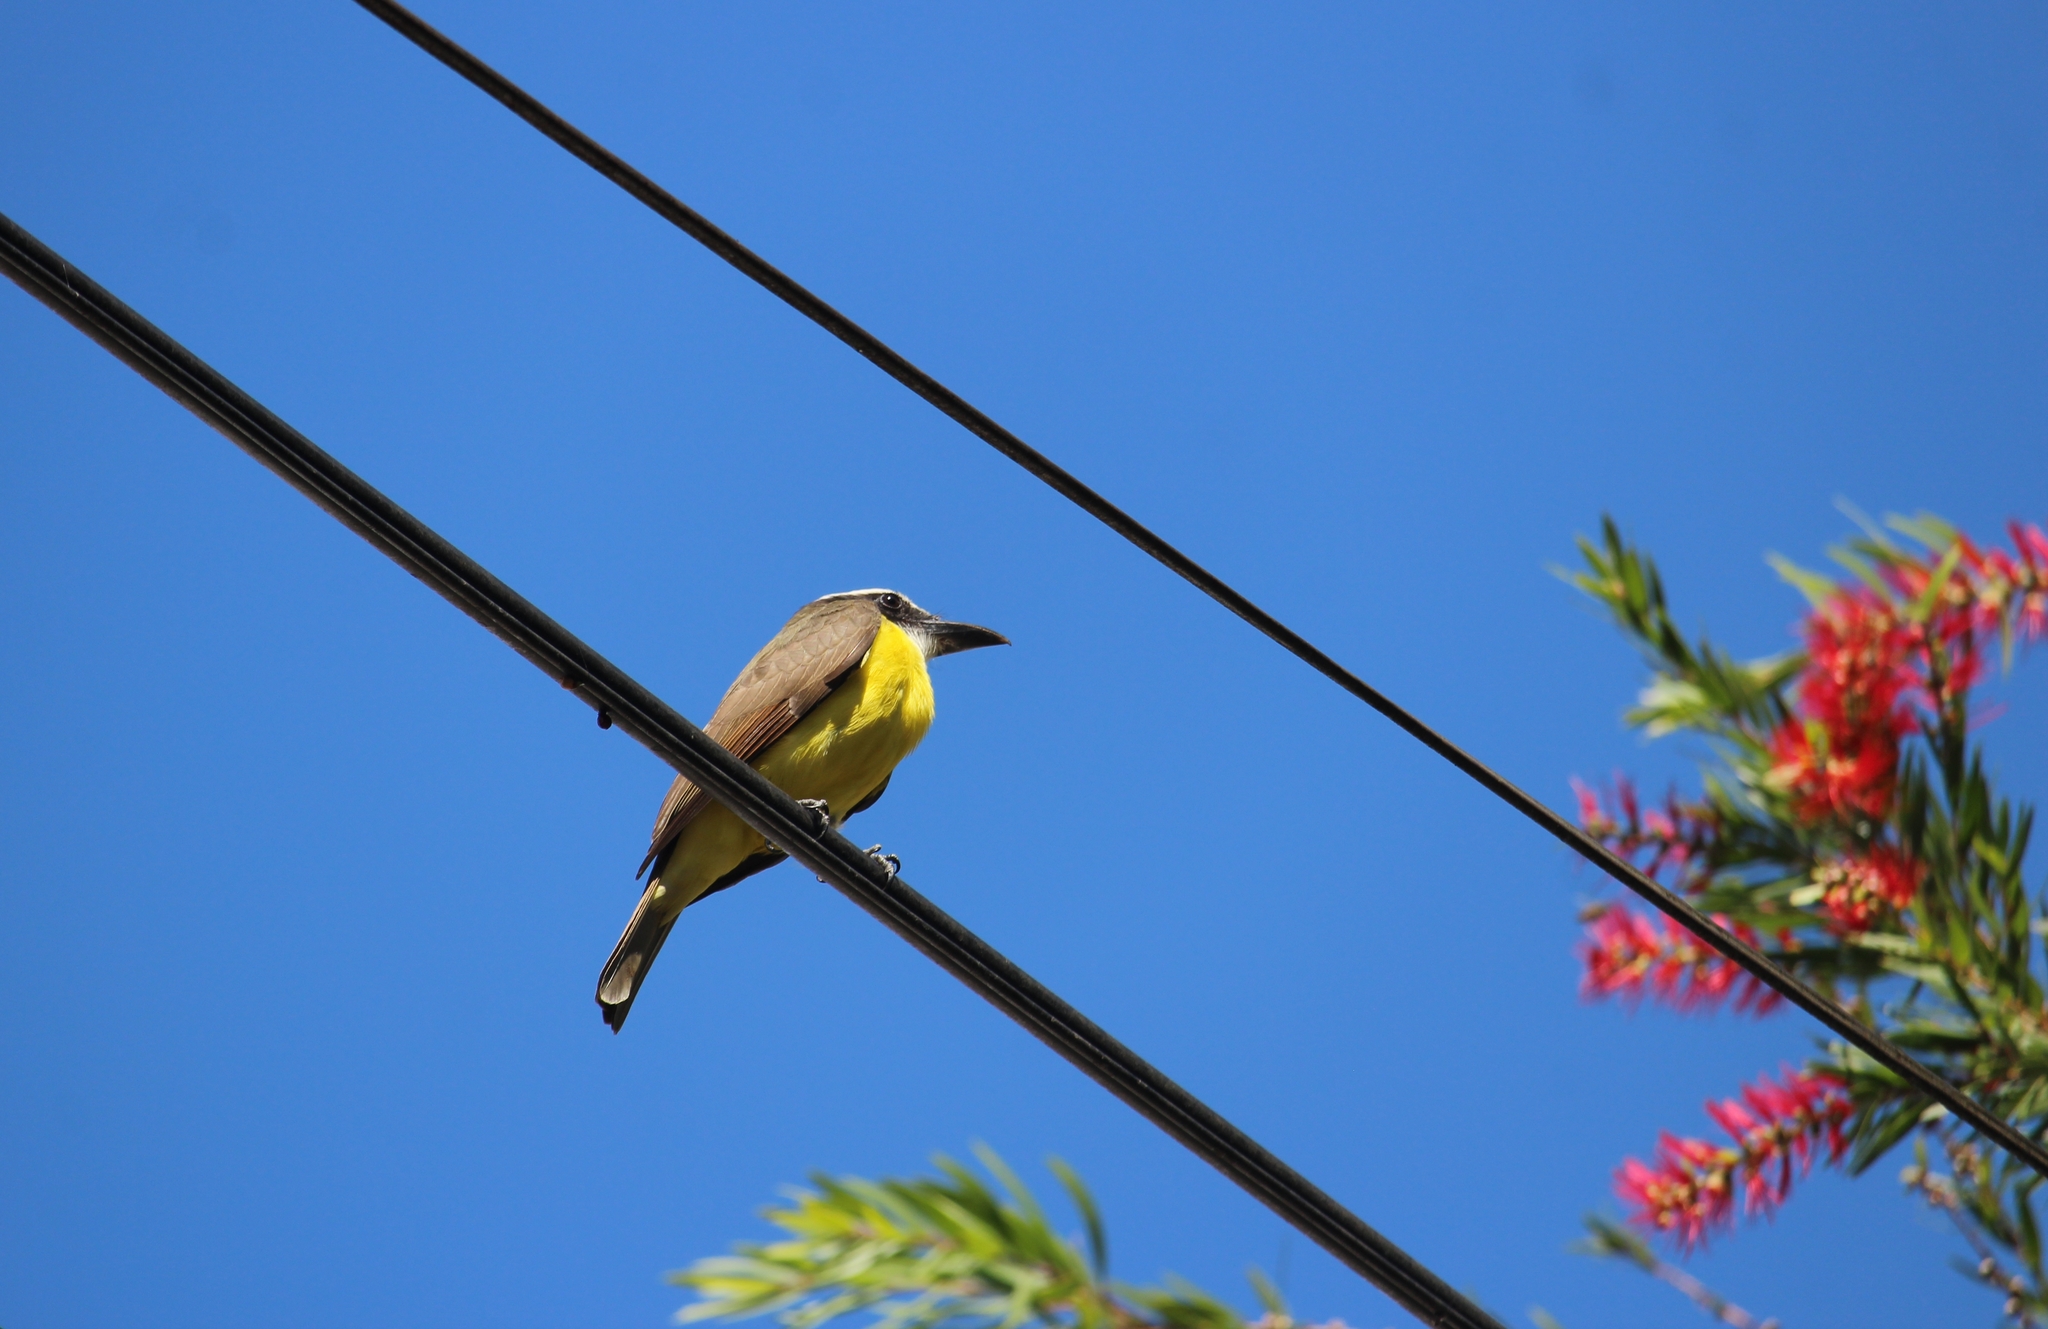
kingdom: Animalia
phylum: Chordata
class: Aves
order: Passeriformes
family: Tyrannidae
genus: Megarynchus
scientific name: Megarynchus pitangua
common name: Boat-billed flycatcher
